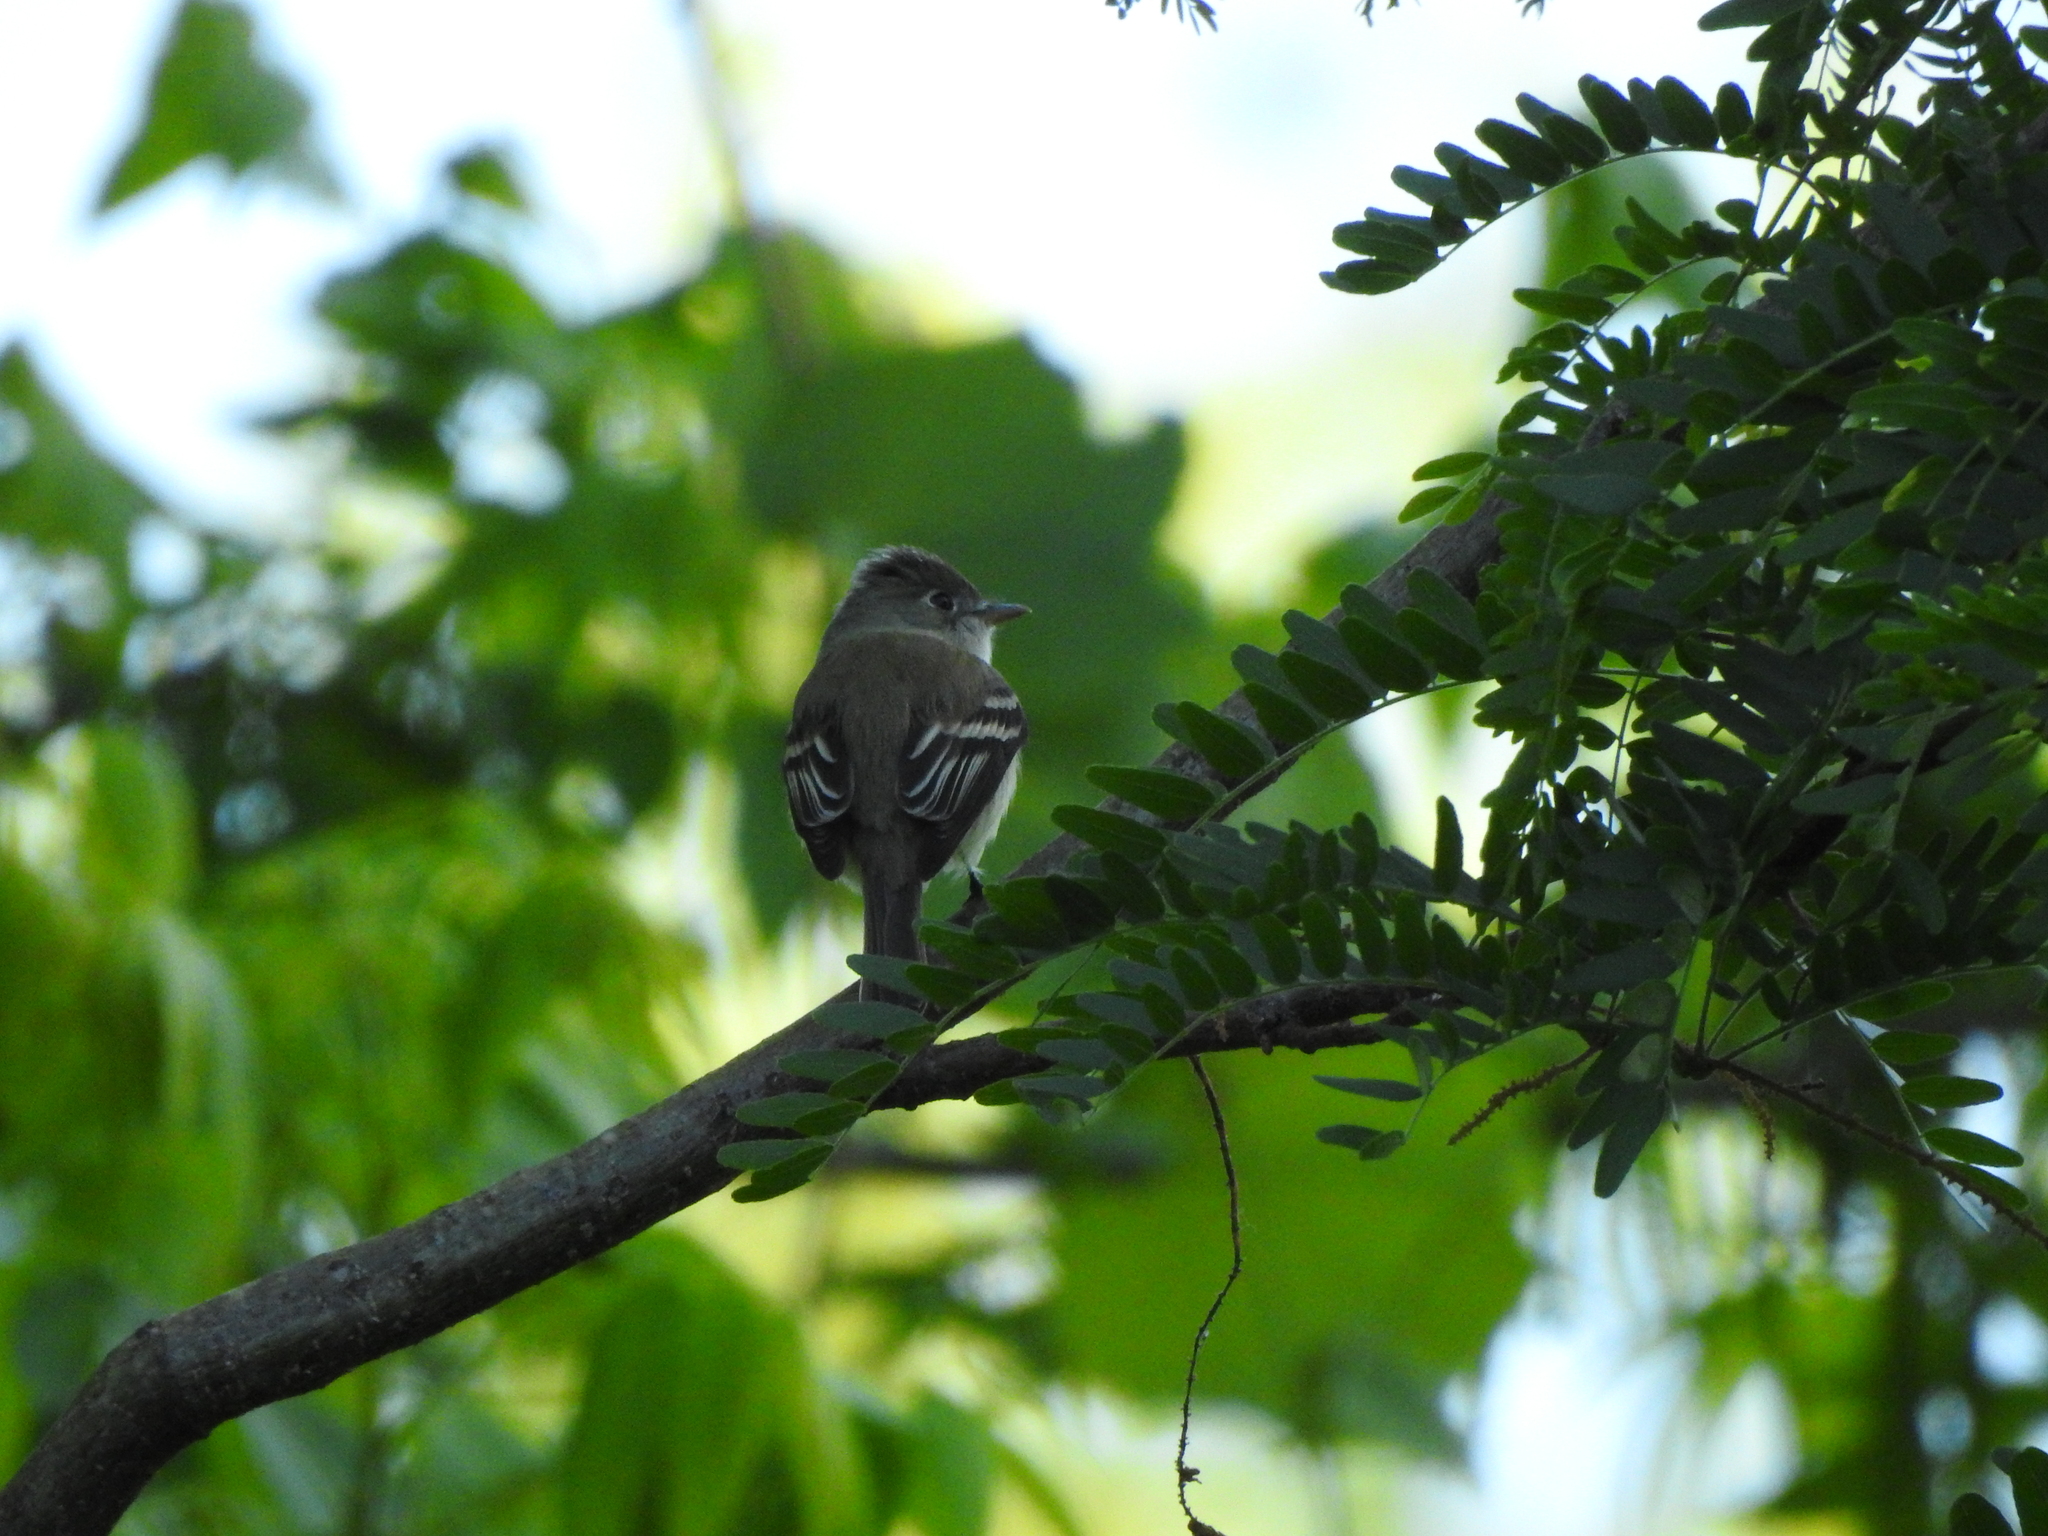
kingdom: Animalia
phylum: Chordata
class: Aves
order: Passeriformes
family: Tyrannidae
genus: Empidonax
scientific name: Empidonax minimus
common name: Least flycatcher
